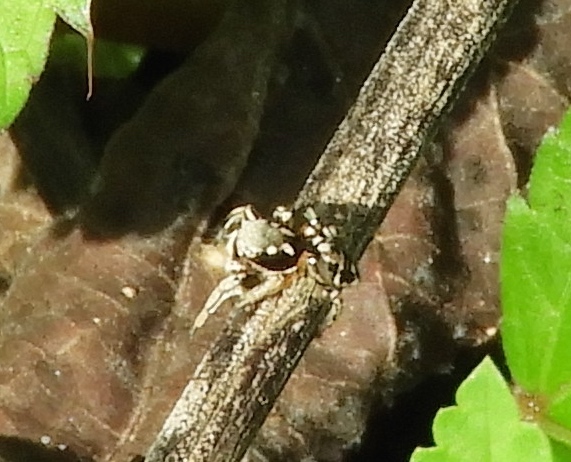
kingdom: Animalia
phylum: Arthropoda
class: Arachnida
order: Araneae
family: Salticidae
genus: Habronattus
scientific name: Habronattus pyrrithrix
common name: Jumping spider
